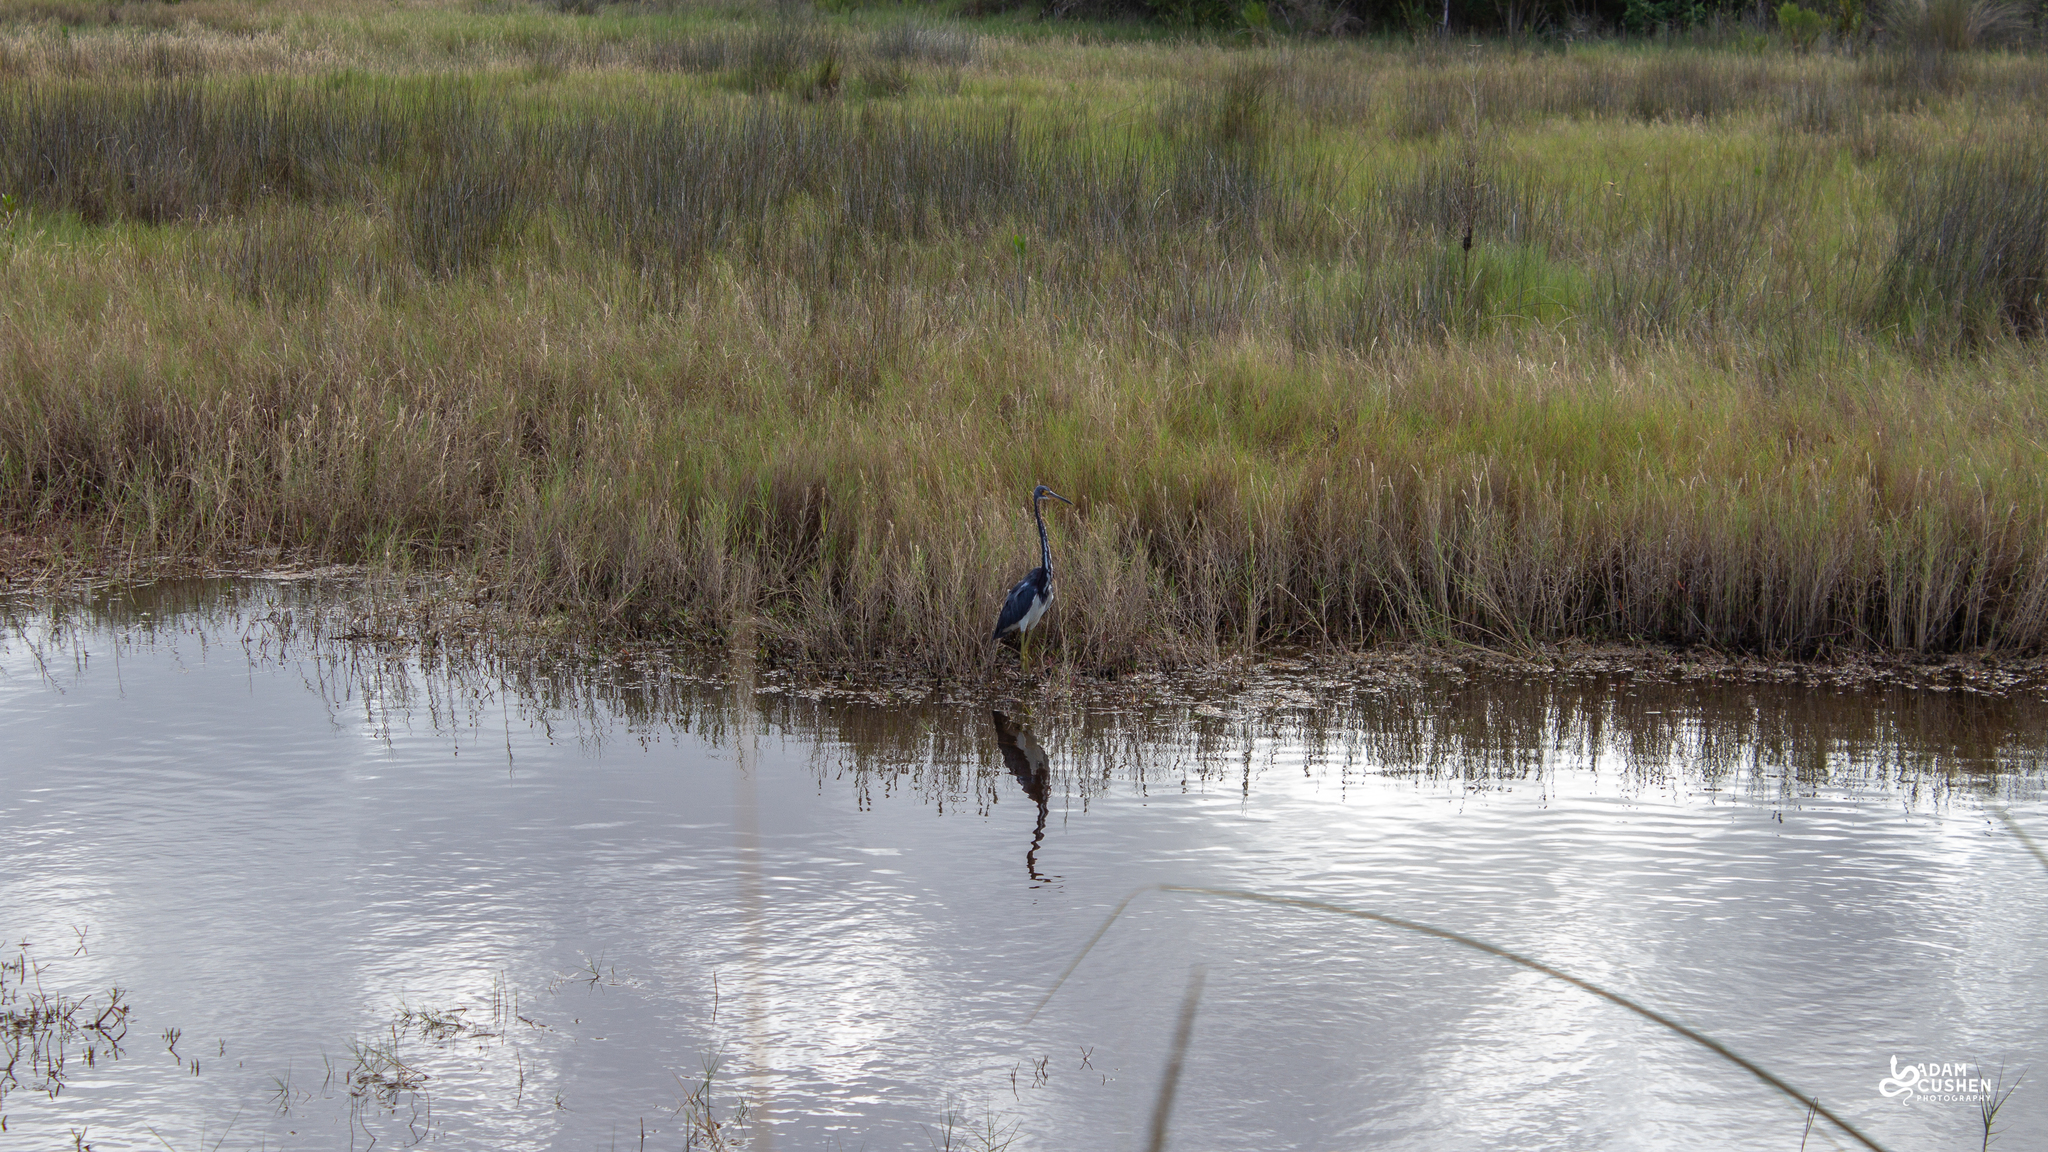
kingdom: Animalia
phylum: Chordata
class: Aves
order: Pelecaniformes
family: Ardeidae
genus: Egretta
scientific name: Egretta tricolor
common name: Tricolored heron
